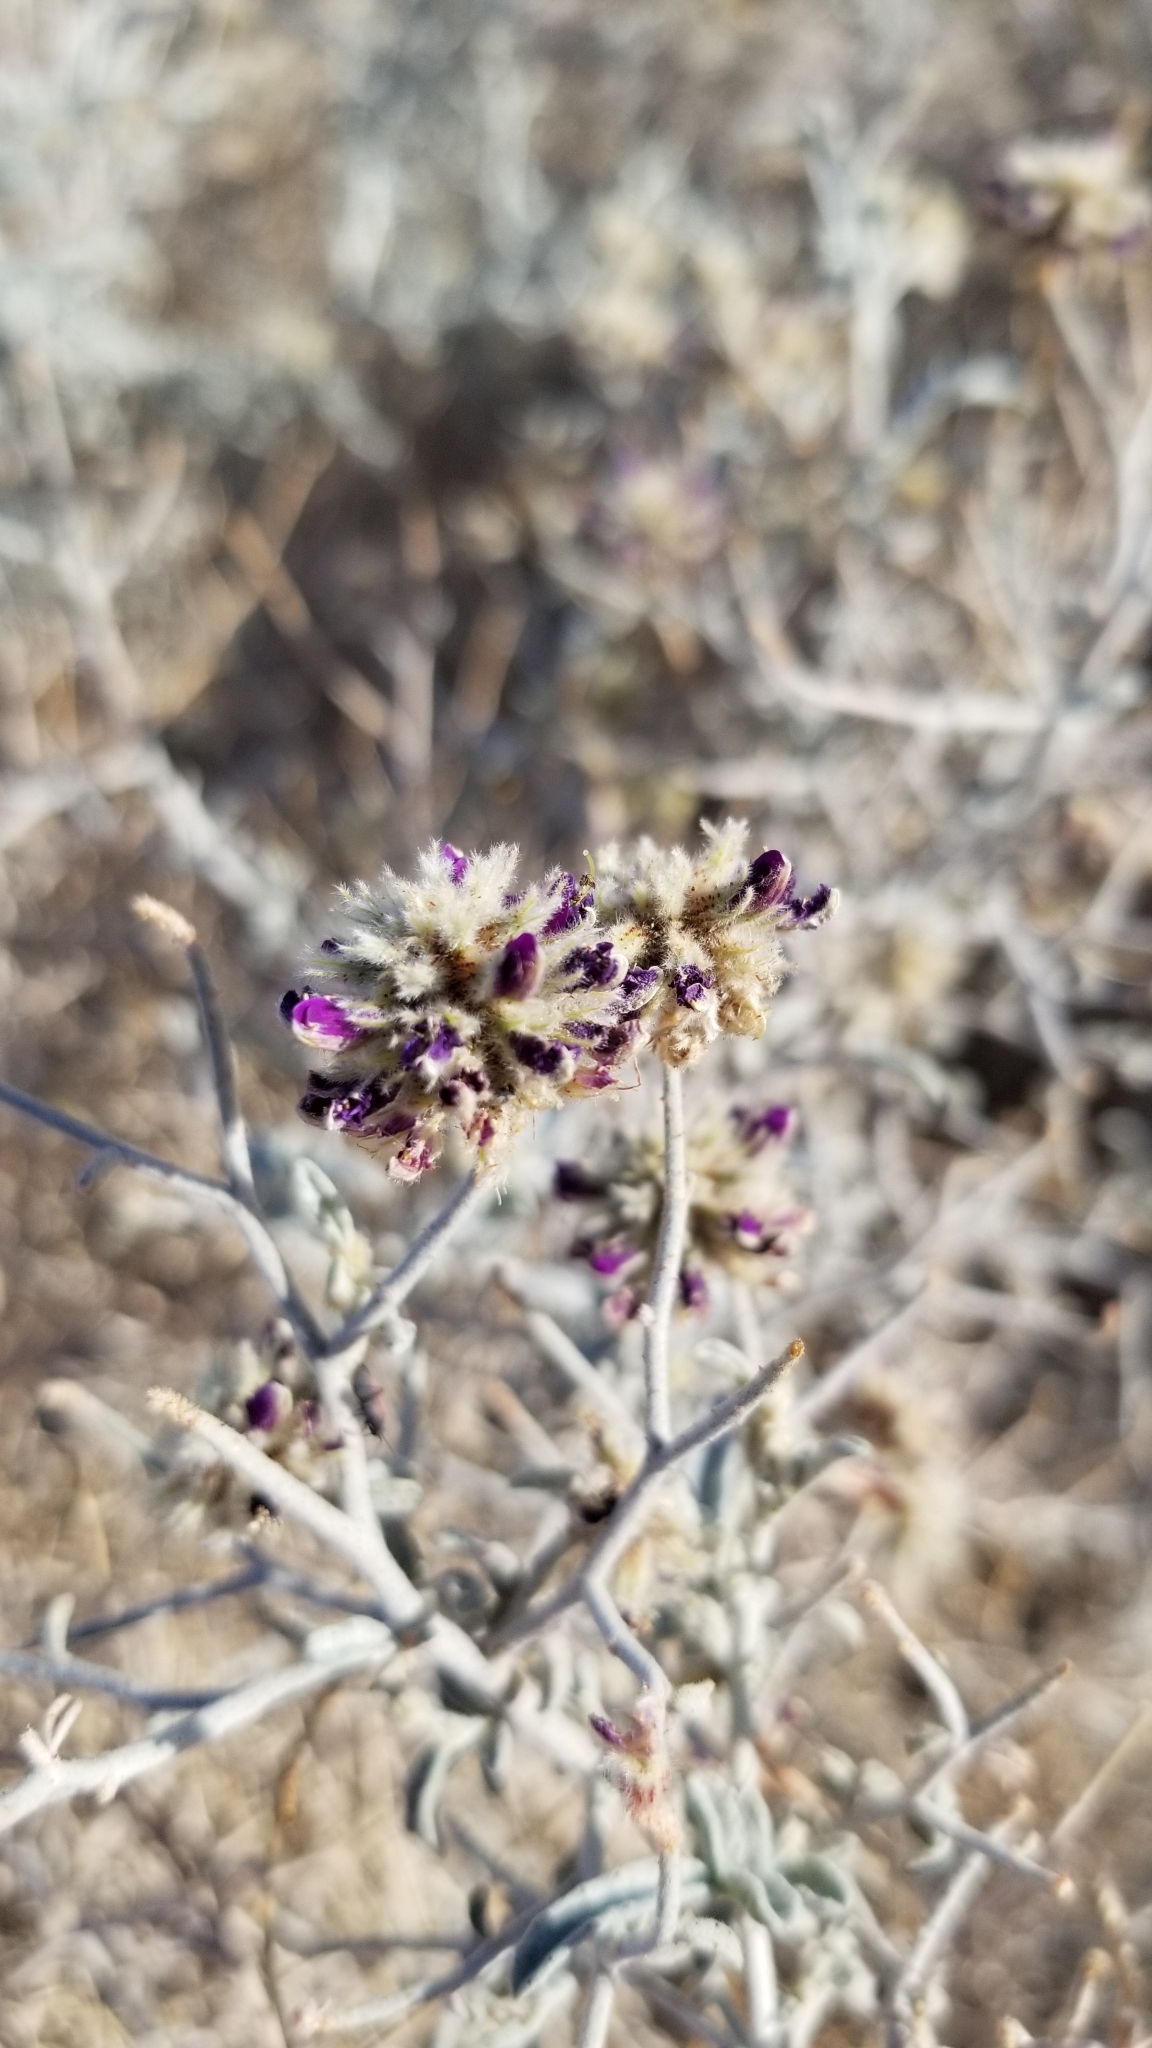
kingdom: Plantae
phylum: Tracheophyta
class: Magnoliopsida
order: Fabales
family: Fabaceae
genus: Psorothamnus
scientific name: Psorothamnus emoryi
